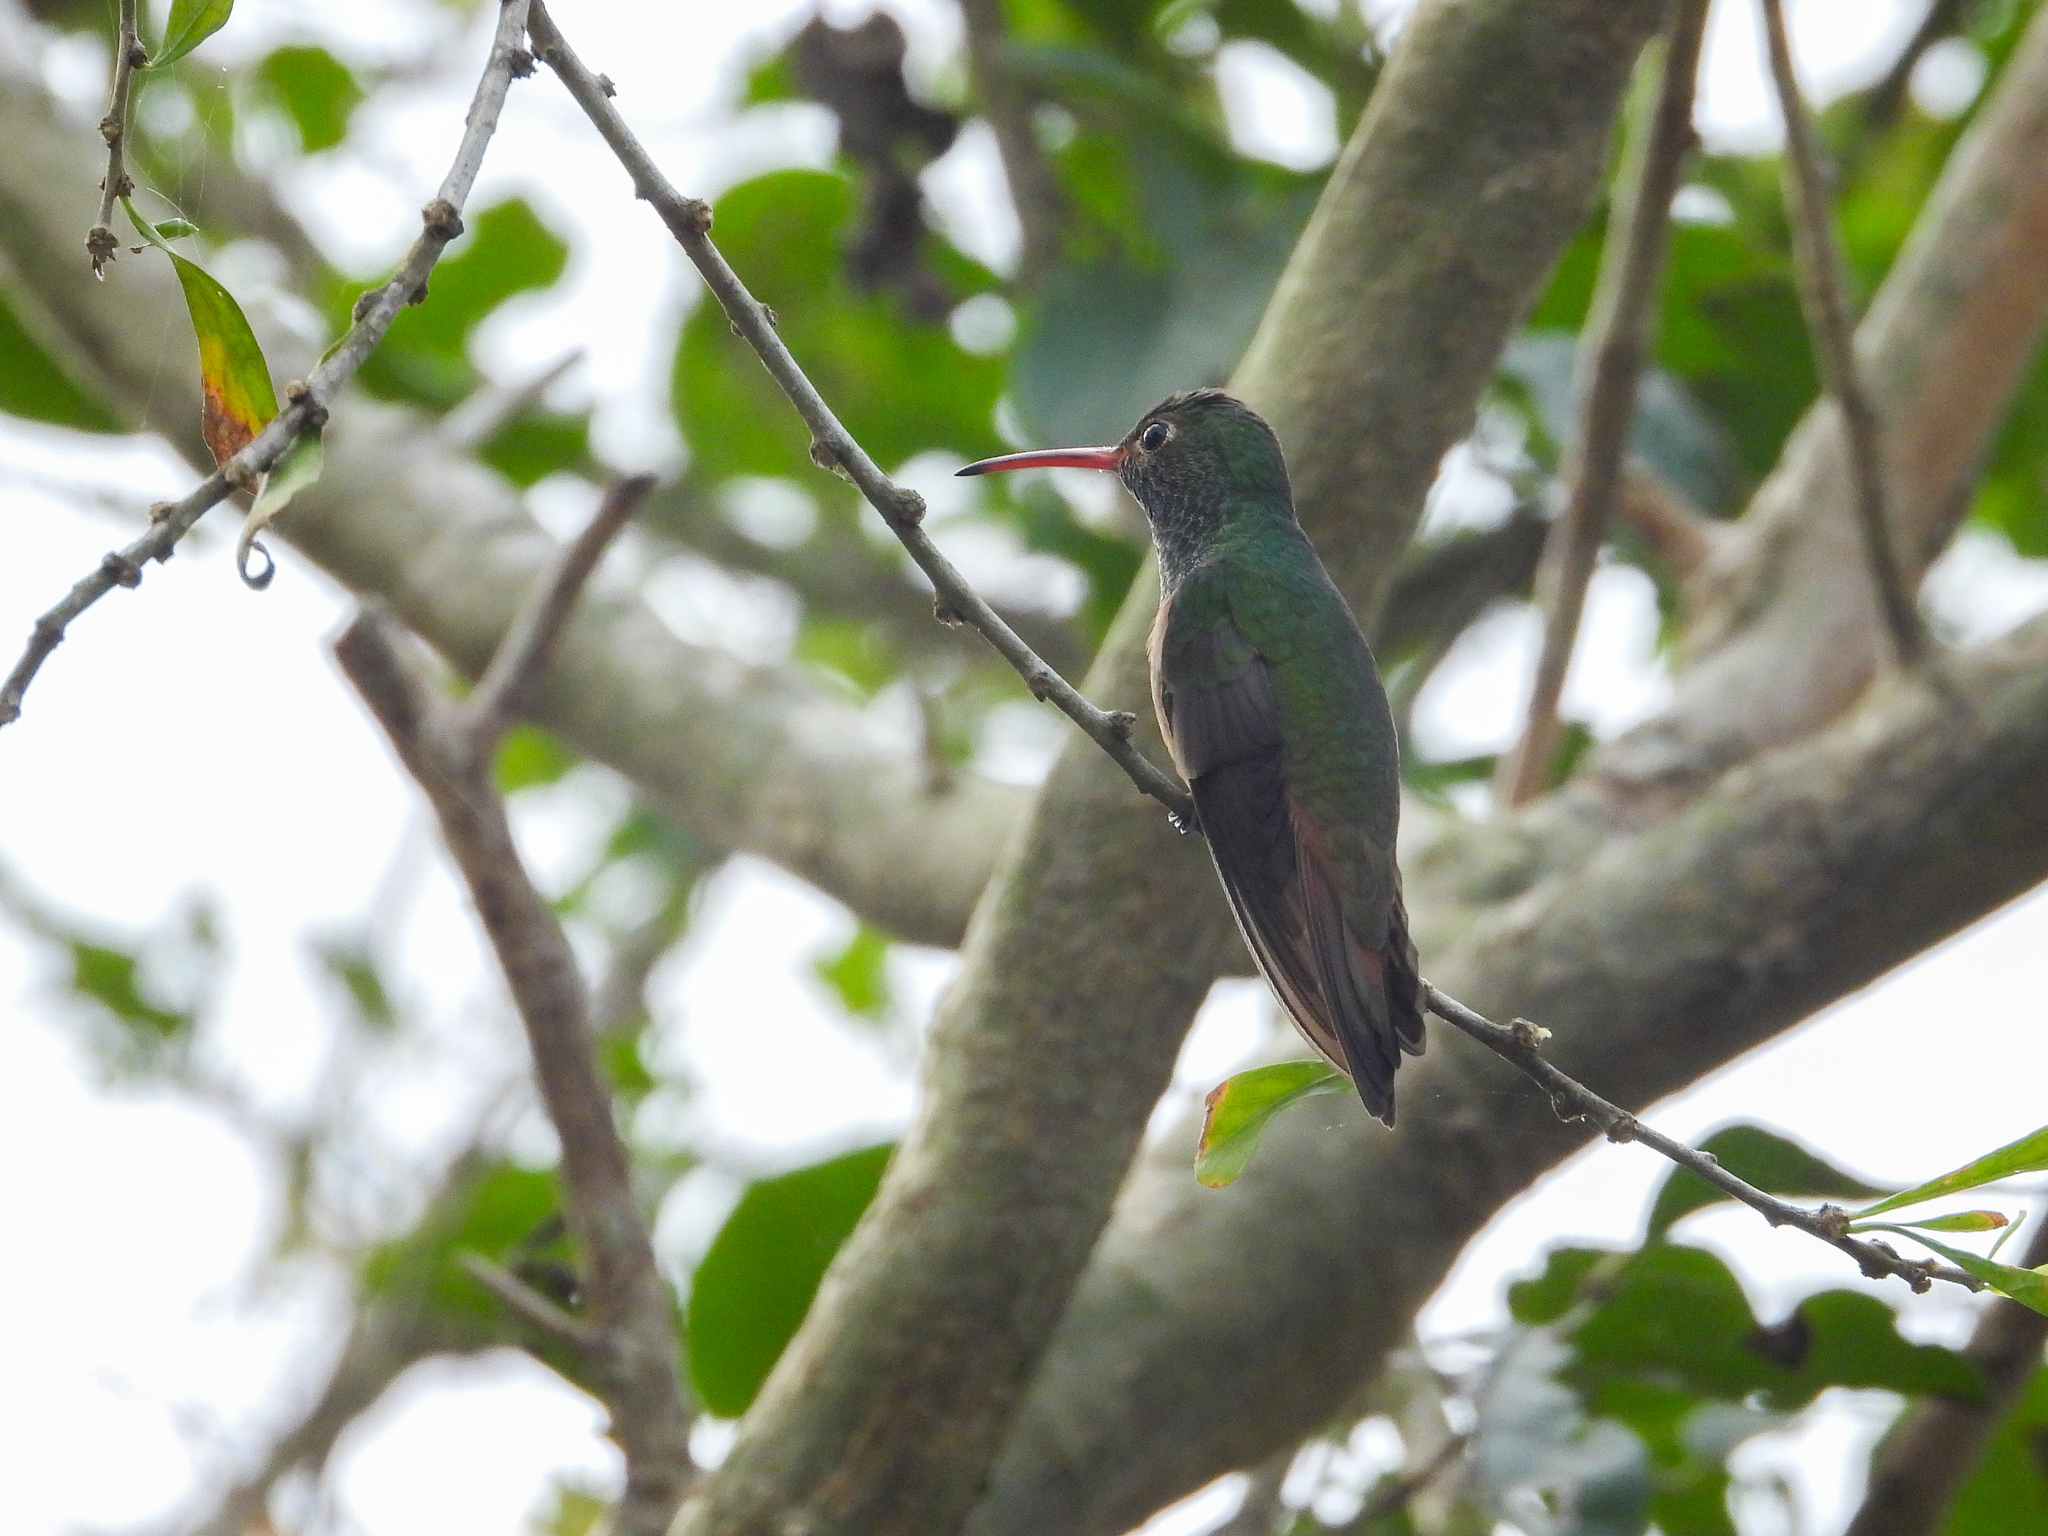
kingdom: Animalia
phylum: Chordata
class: Aves
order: Apodiformes
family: Trochilidae
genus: Amazilia
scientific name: Amazilia yucatanensis
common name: Buff-bellied hummingbird
